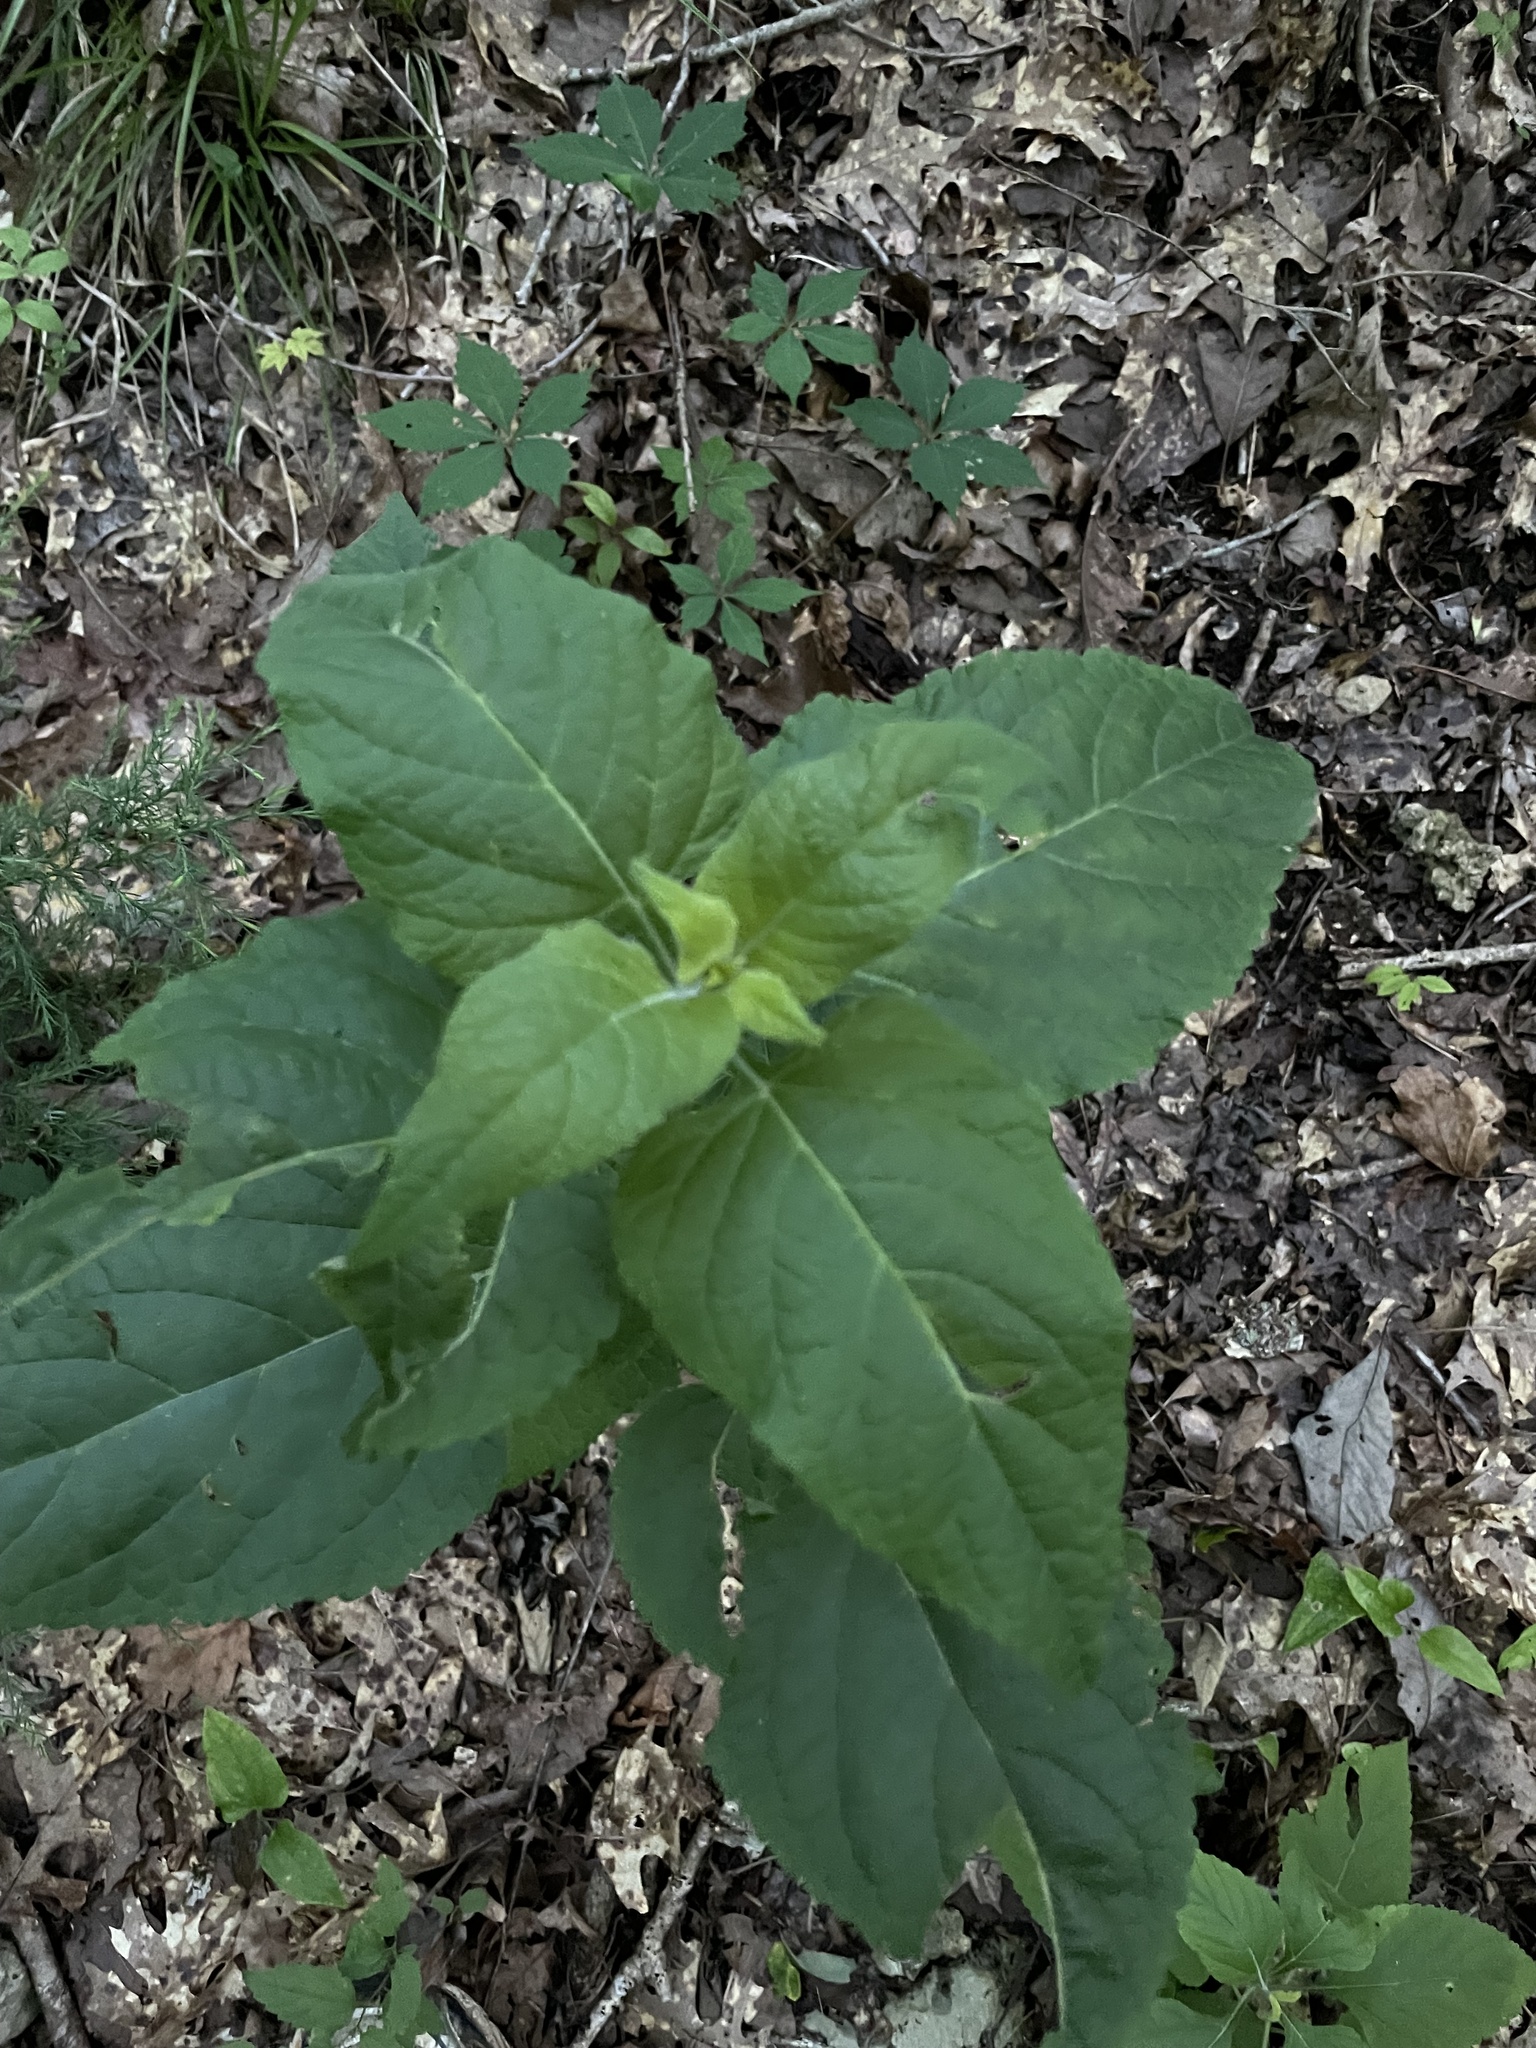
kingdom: Plantae
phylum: Tracheophyta
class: Magnoliopsida
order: Lamiales
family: Lamiaceae
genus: Salvia
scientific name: Salvia chapmanii
